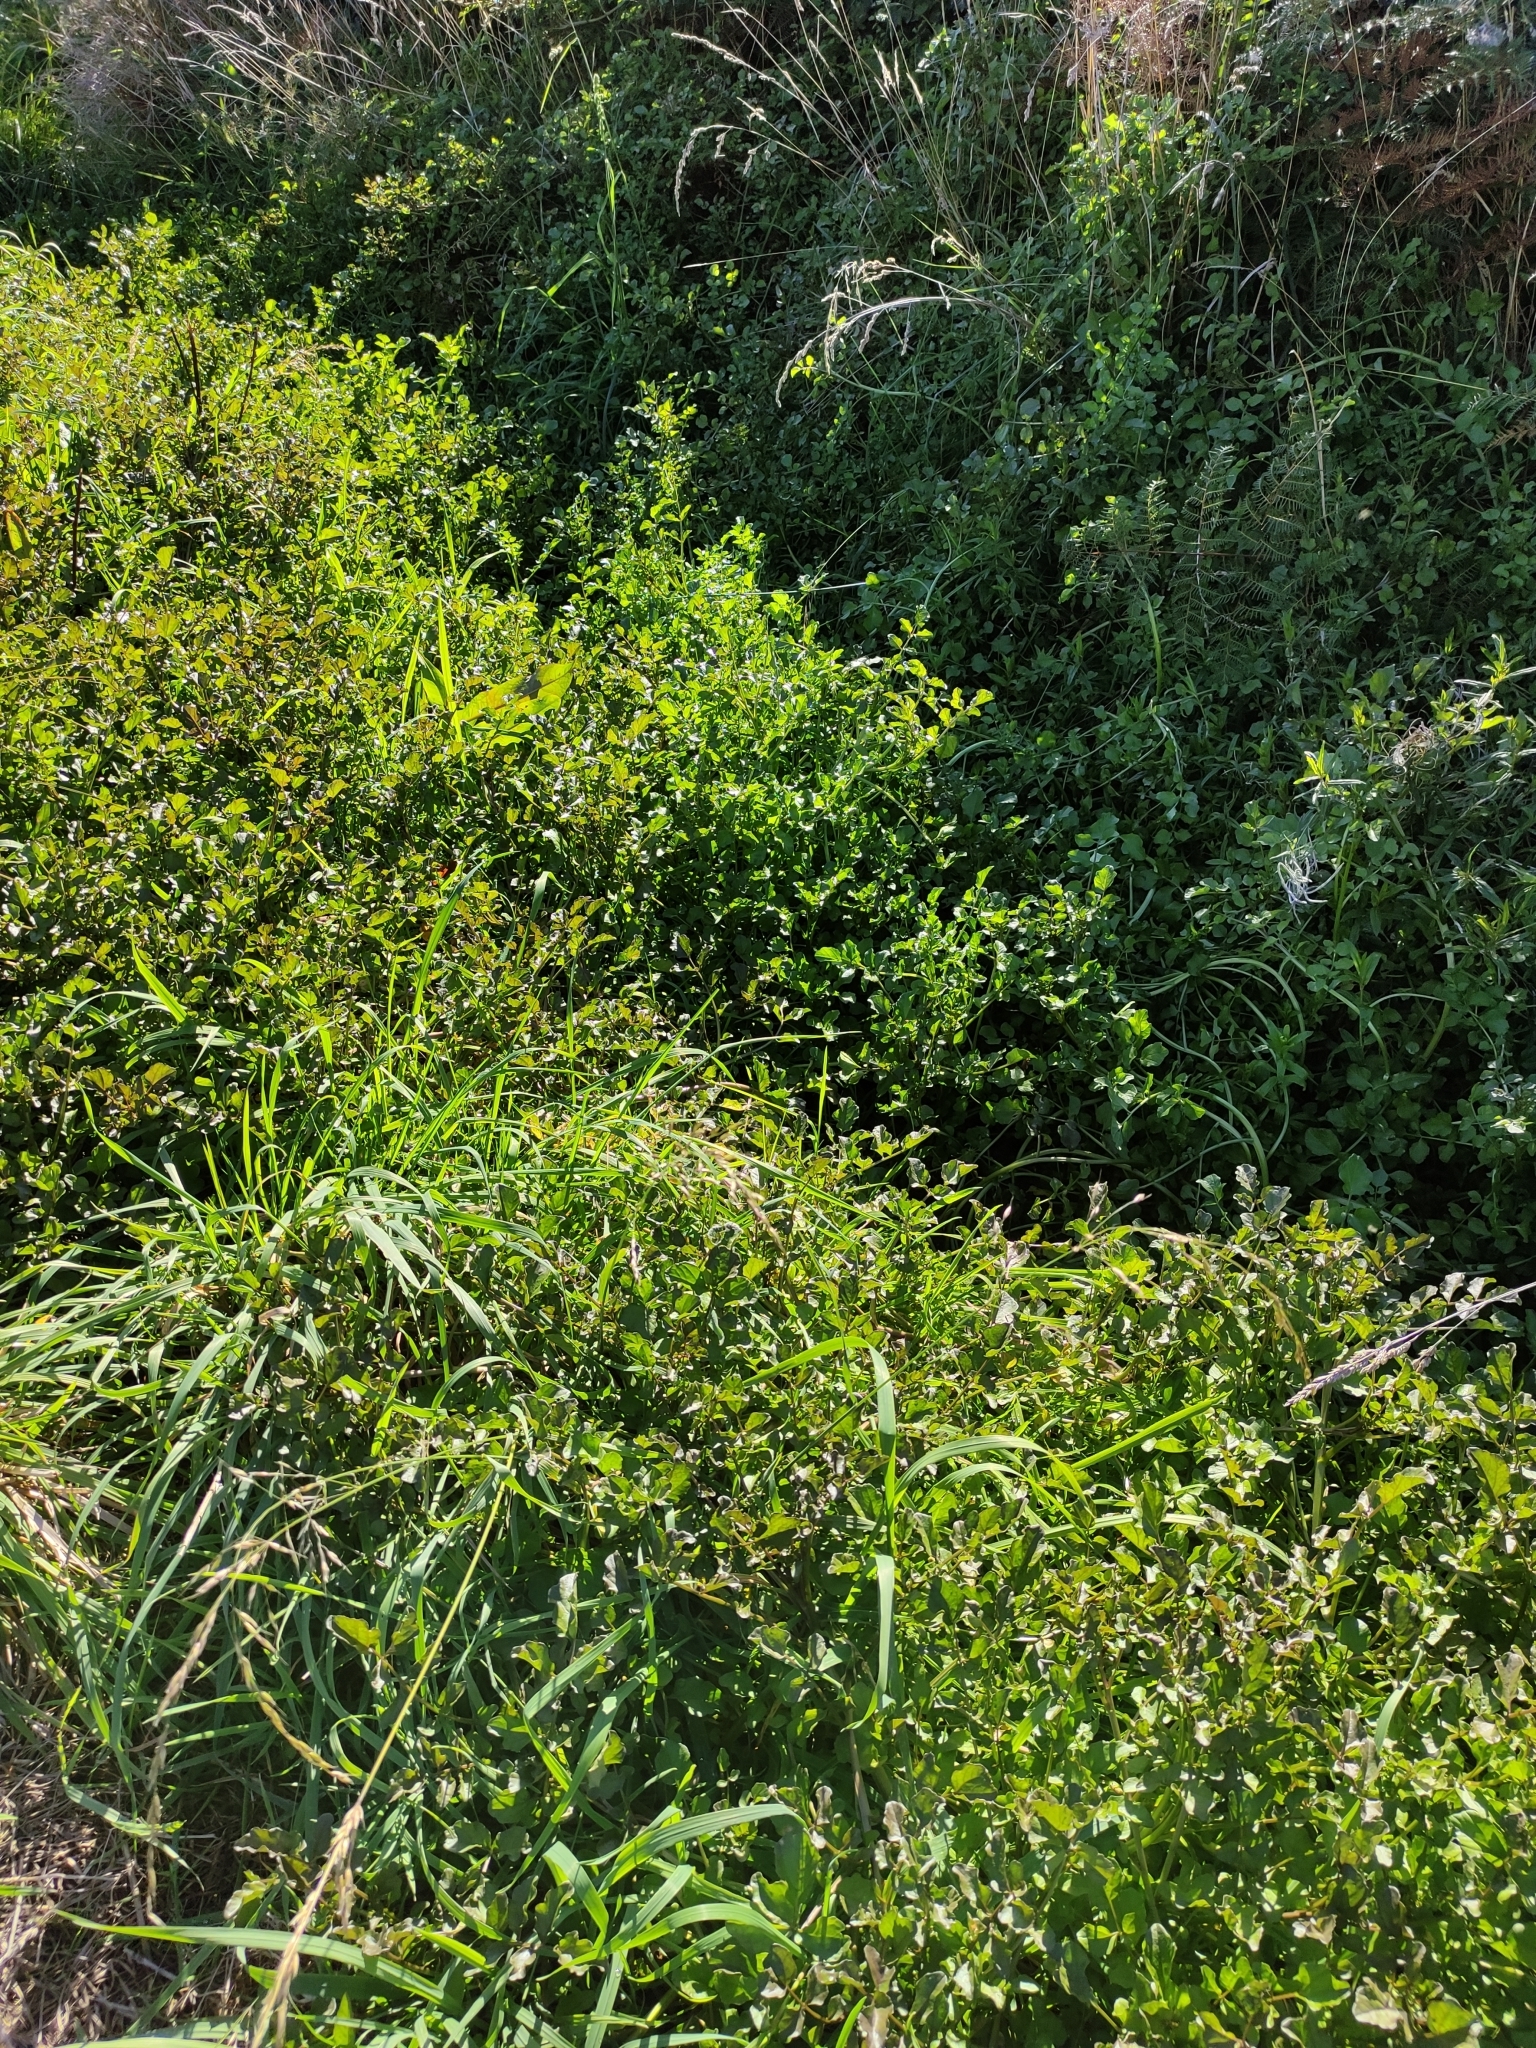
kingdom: Plantae
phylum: Tracheophyta
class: Magnoliopsida
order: Brassicales
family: Brassicaceae
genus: Nasturtium
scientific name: Nasturtium officinale
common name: Watercress
